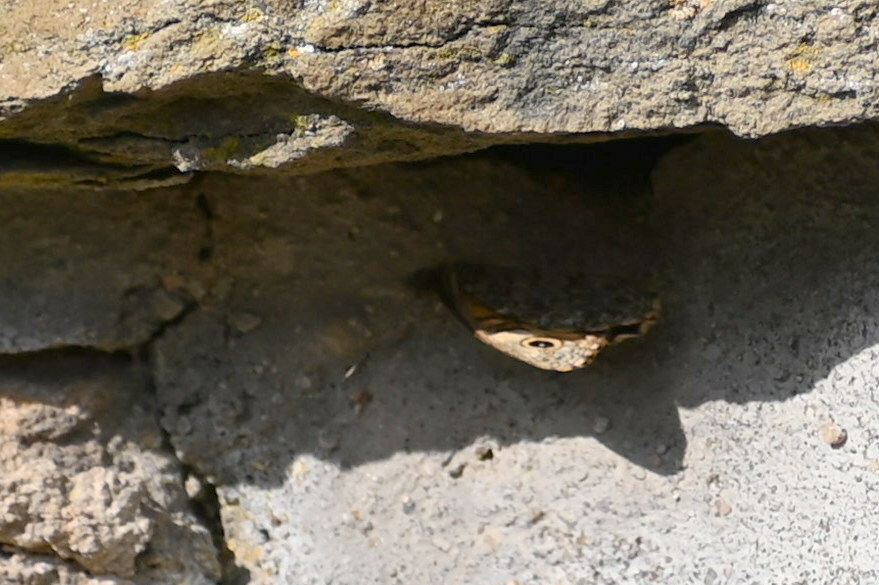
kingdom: Animalia
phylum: Arthropoda
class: Insecta
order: Lepidoptera
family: Nymphalidae
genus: Pararge
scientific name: Pararge Lasiommata megera
